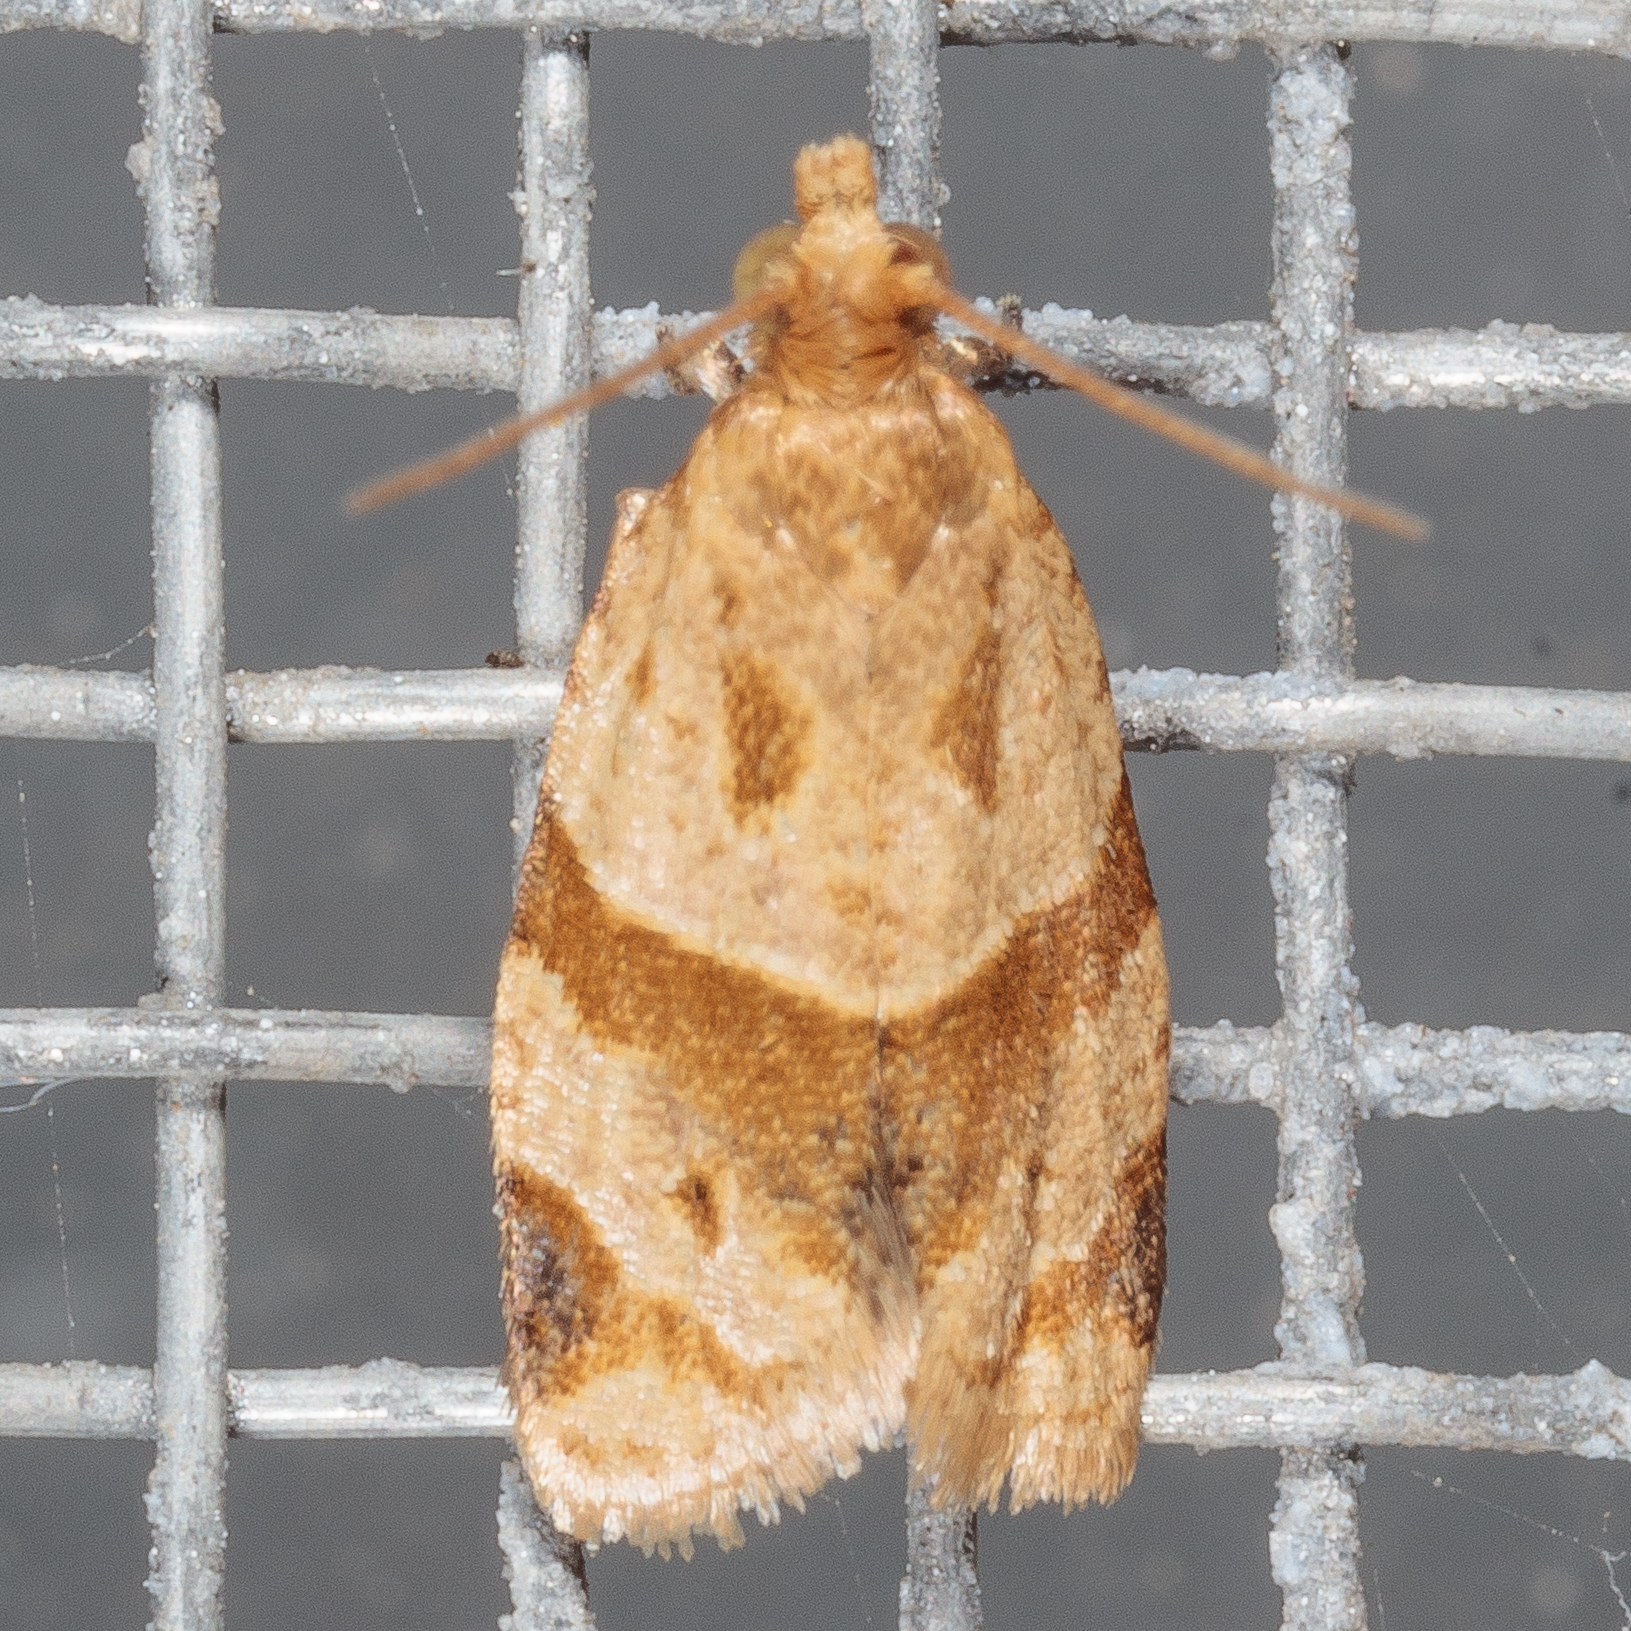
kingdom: Animalia
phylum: Arthropoda
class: Insecta
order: Lepidoptera
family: Tortricidae
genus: Clepsis
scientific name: Clepsis peritana
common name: Garden tortrix
